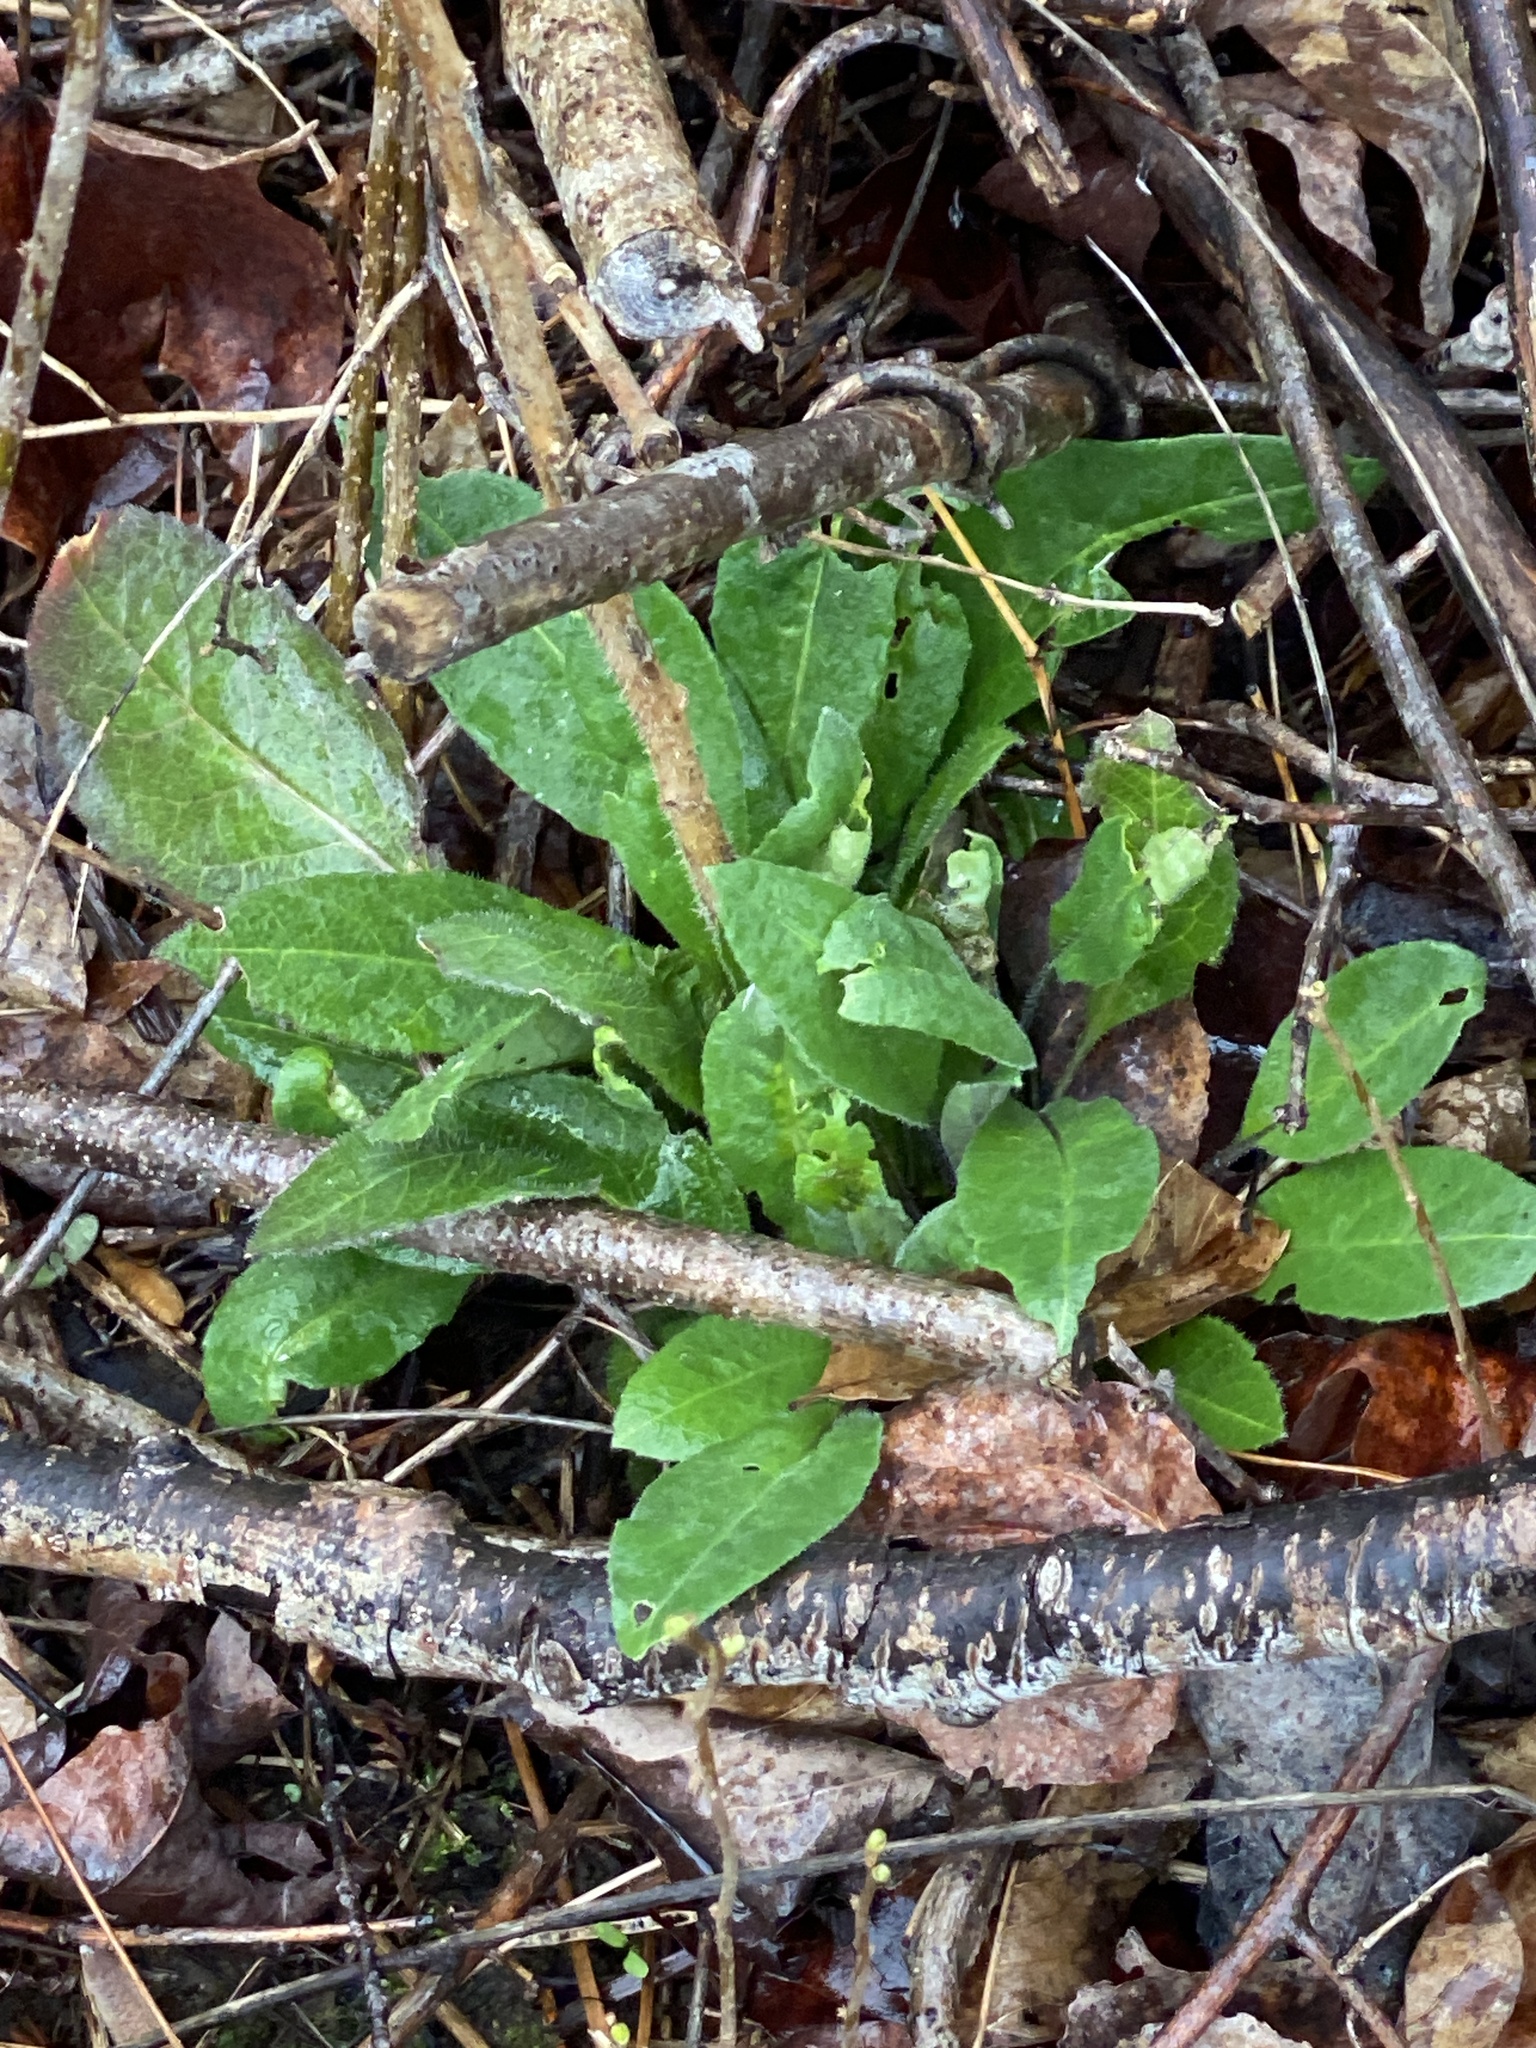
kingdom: Plantae
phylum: Tracheophyta
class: Magnoliopsida
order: Brassicales
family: Brassicaceae
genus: Hesperis
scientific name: Hesperis matronalis
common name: Dame's-violet
